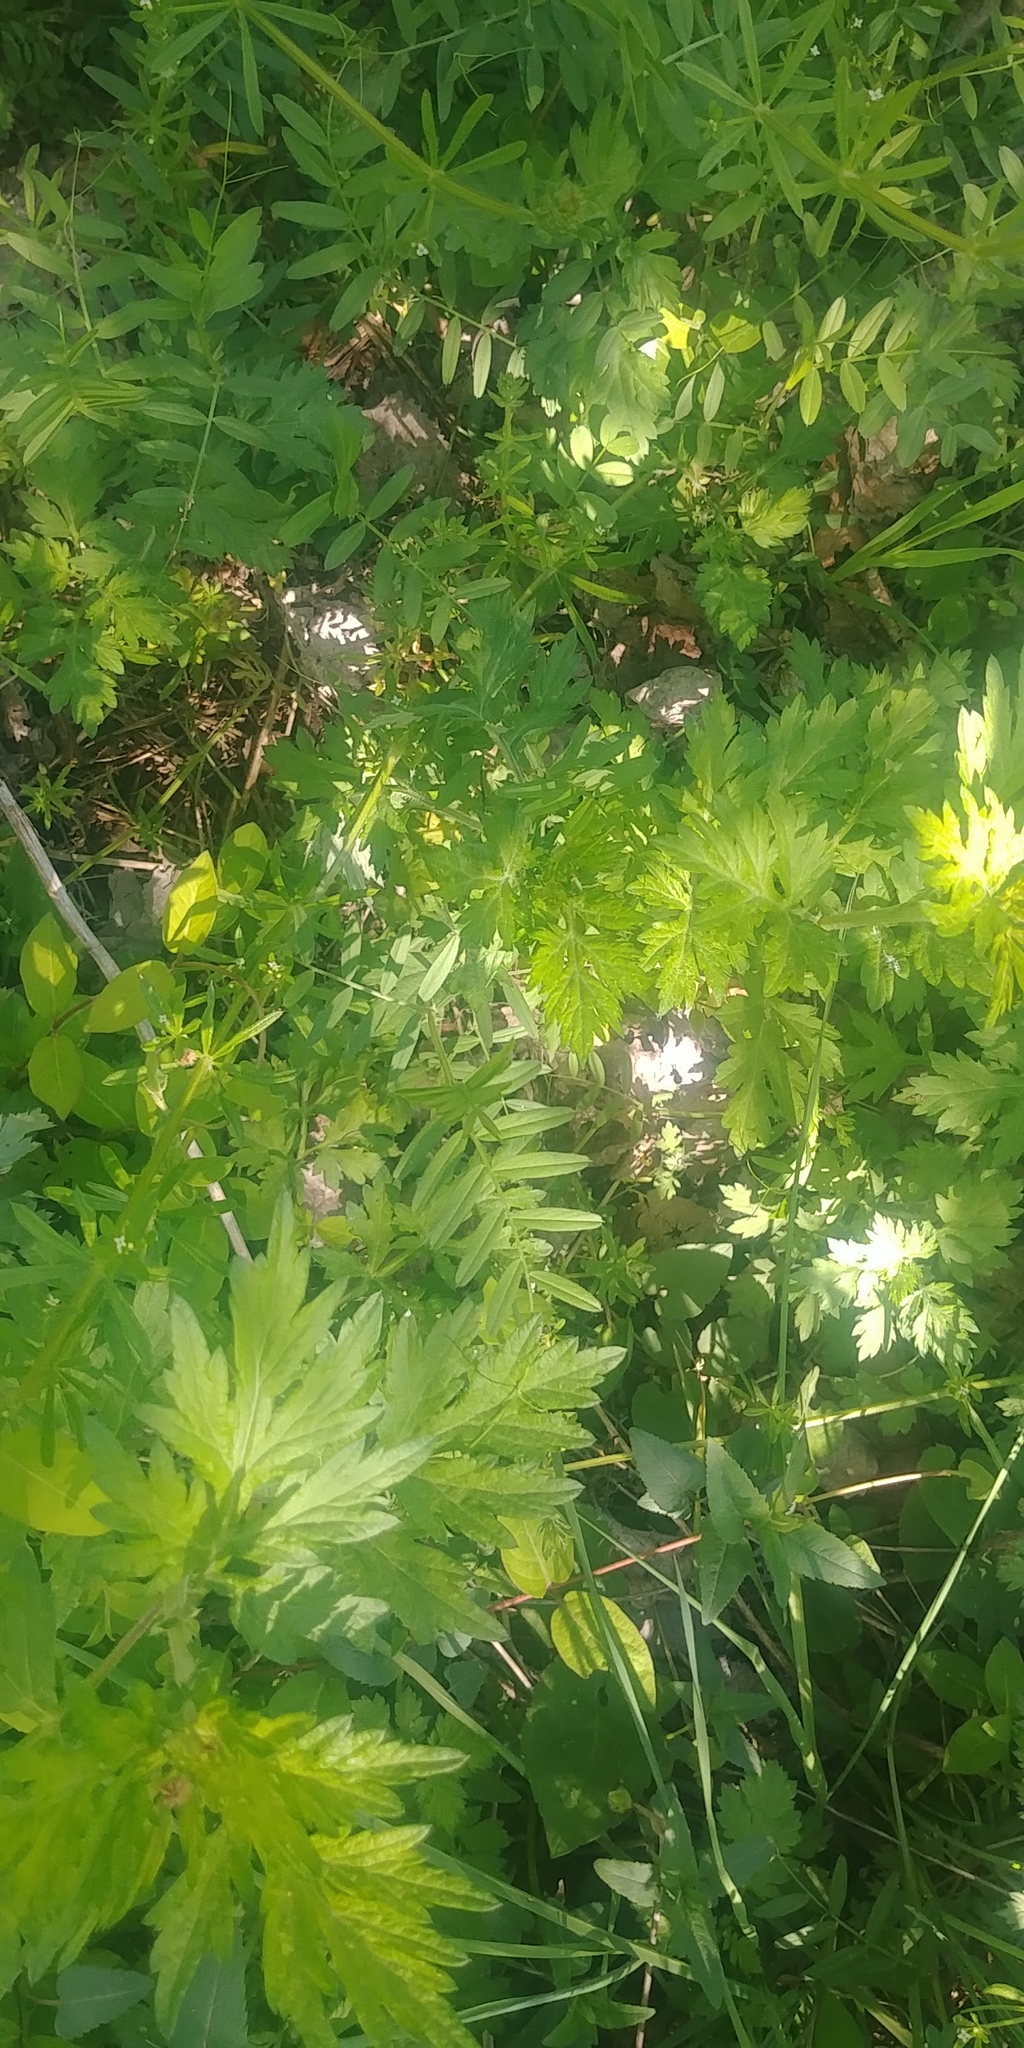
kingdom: Plantae
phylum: Tracheophyta
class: Magnoliopsida
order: Asterales
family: Asteraceae
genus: Artemisia
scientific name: Artemisia vulgaris
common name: Mugwort
